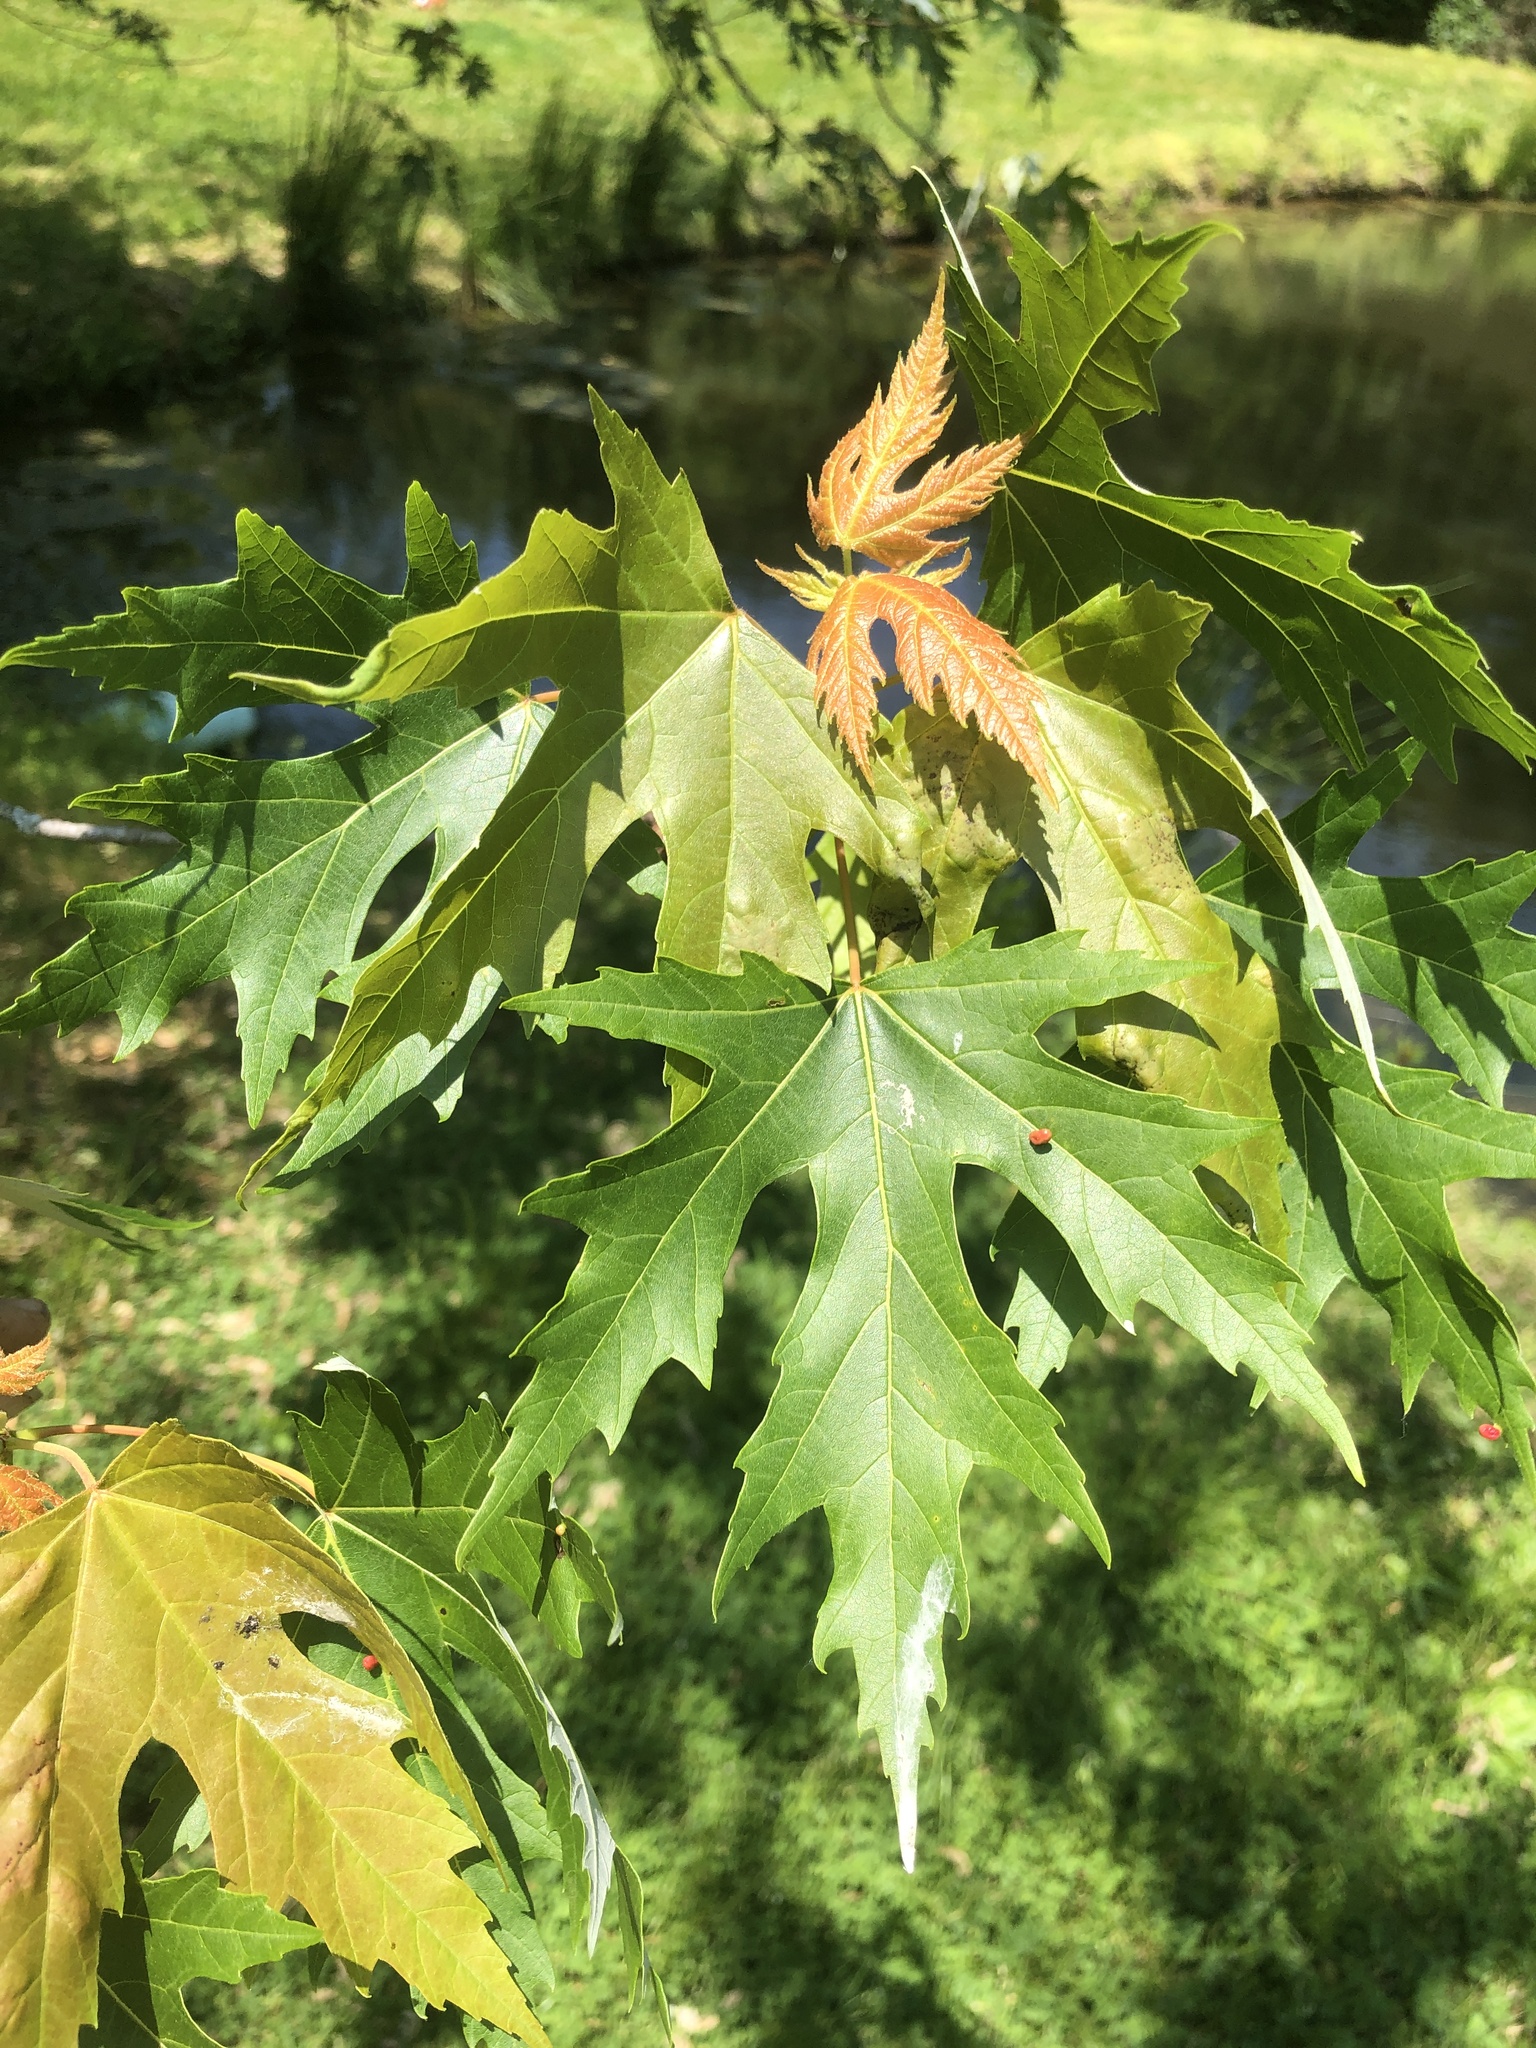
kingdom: Plantae
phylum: Tracheophyta
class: Magnoliopsida
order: Sapindales
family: Sapindaceae
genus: Acer
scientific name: Acer saccharinum
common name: Silver maple
